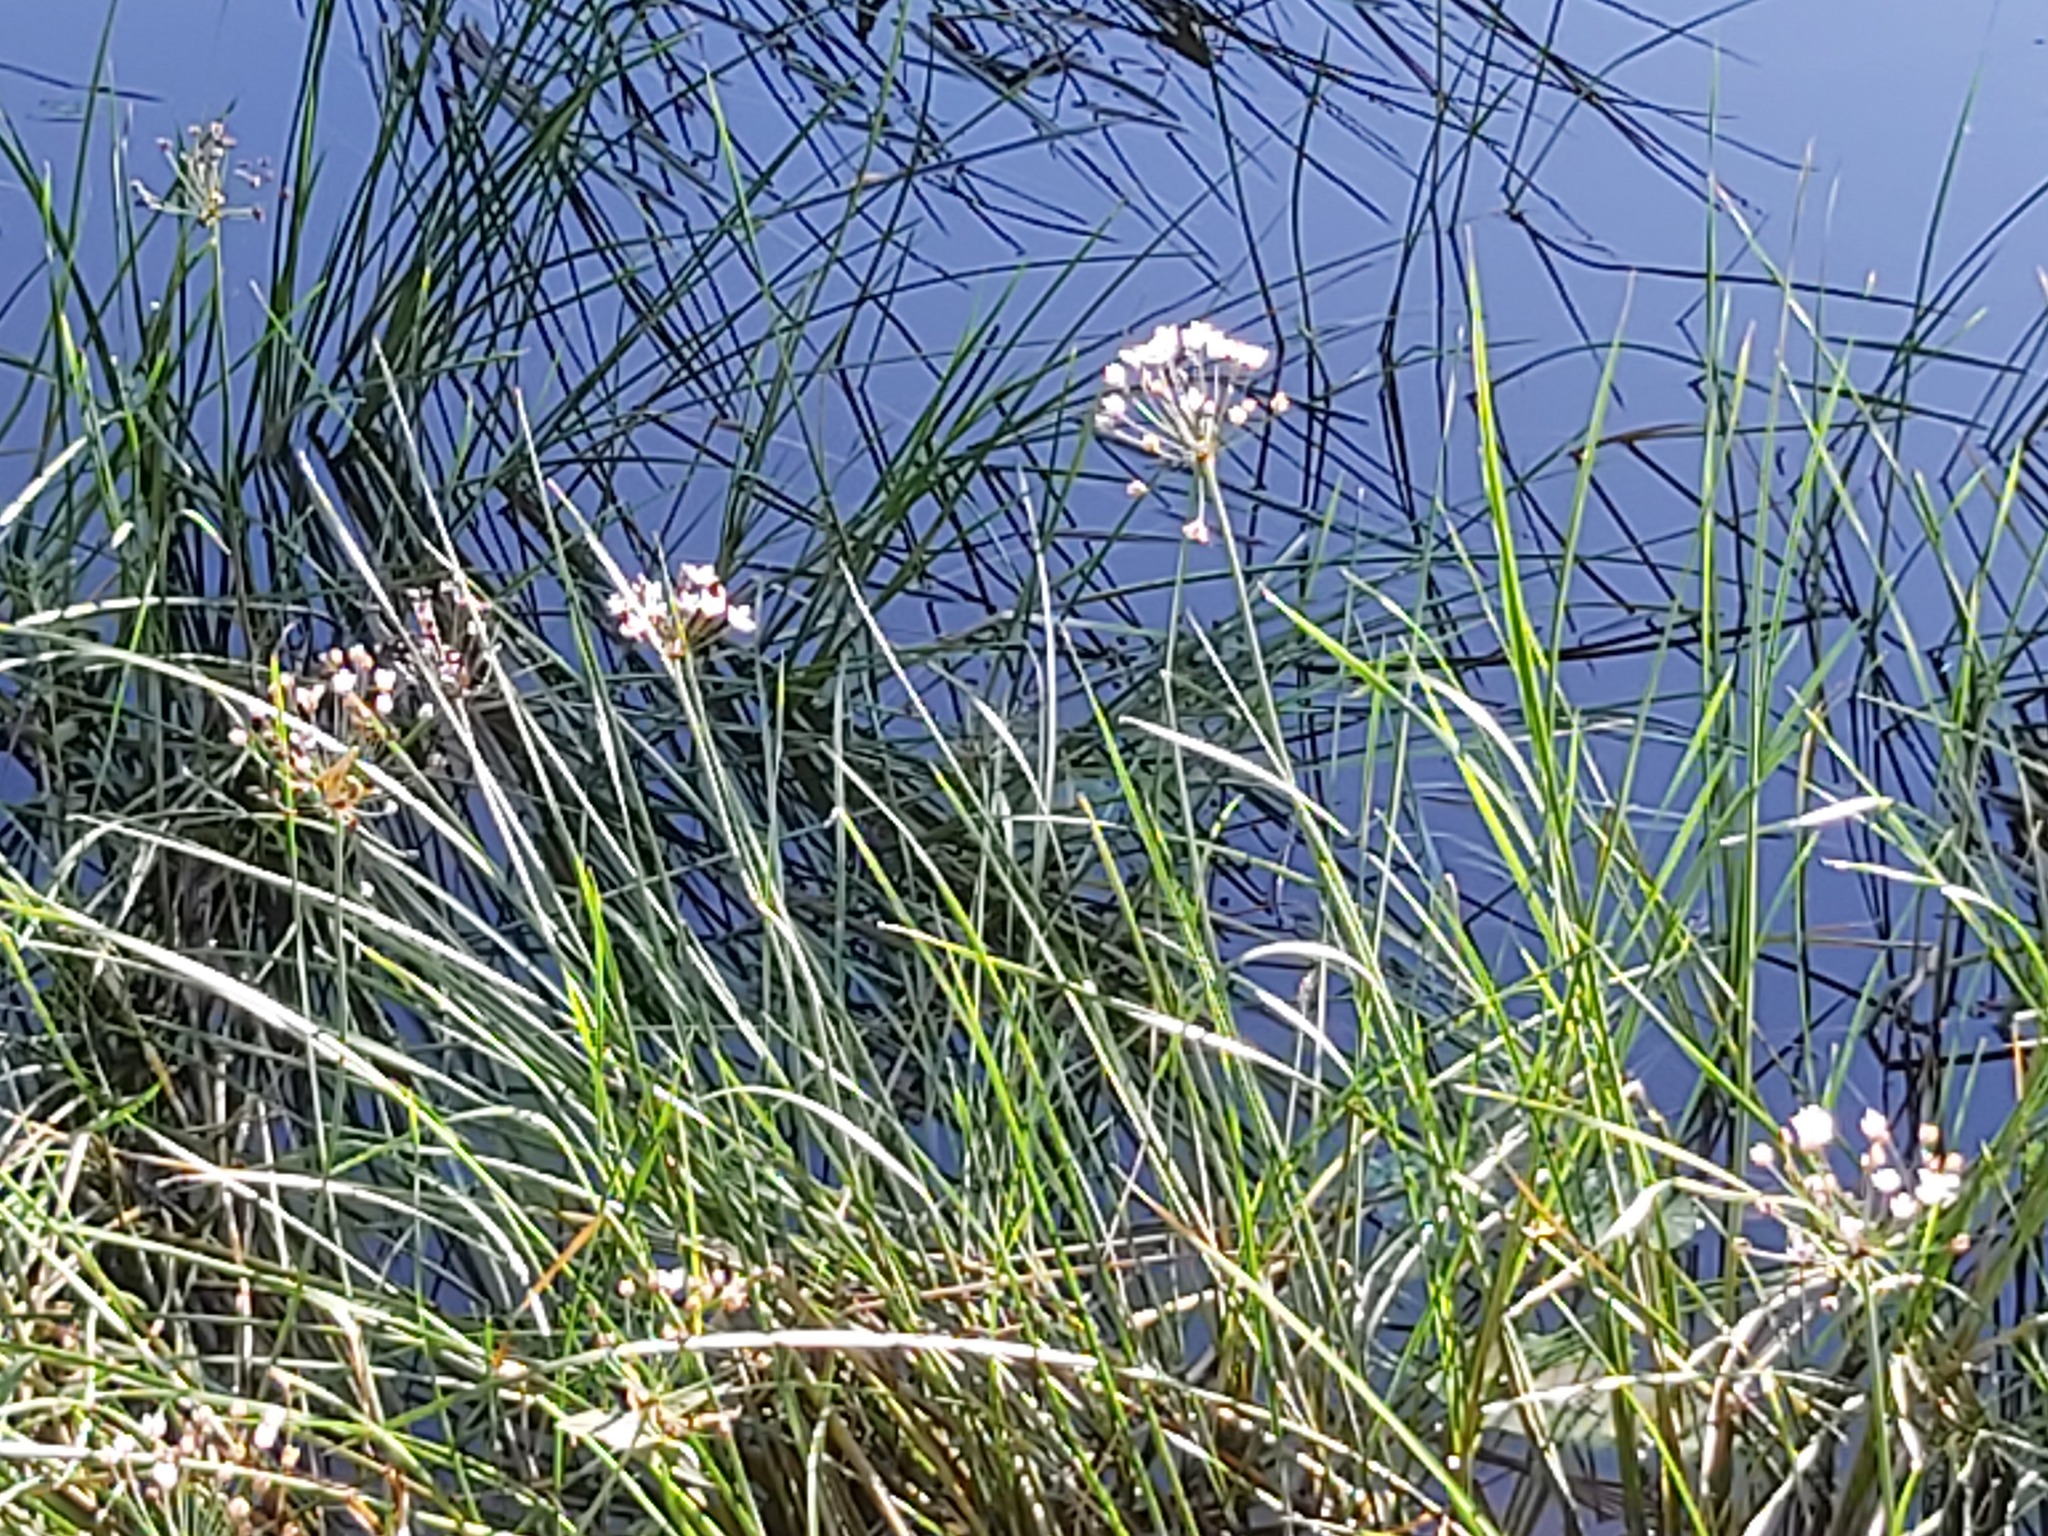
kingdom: Plantae
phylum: Tracheophyta
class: Liliopsida
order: Alismatales
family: Butomaceae
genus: Butomus
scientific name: Butomus umbellatus
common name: Flowering-rush
